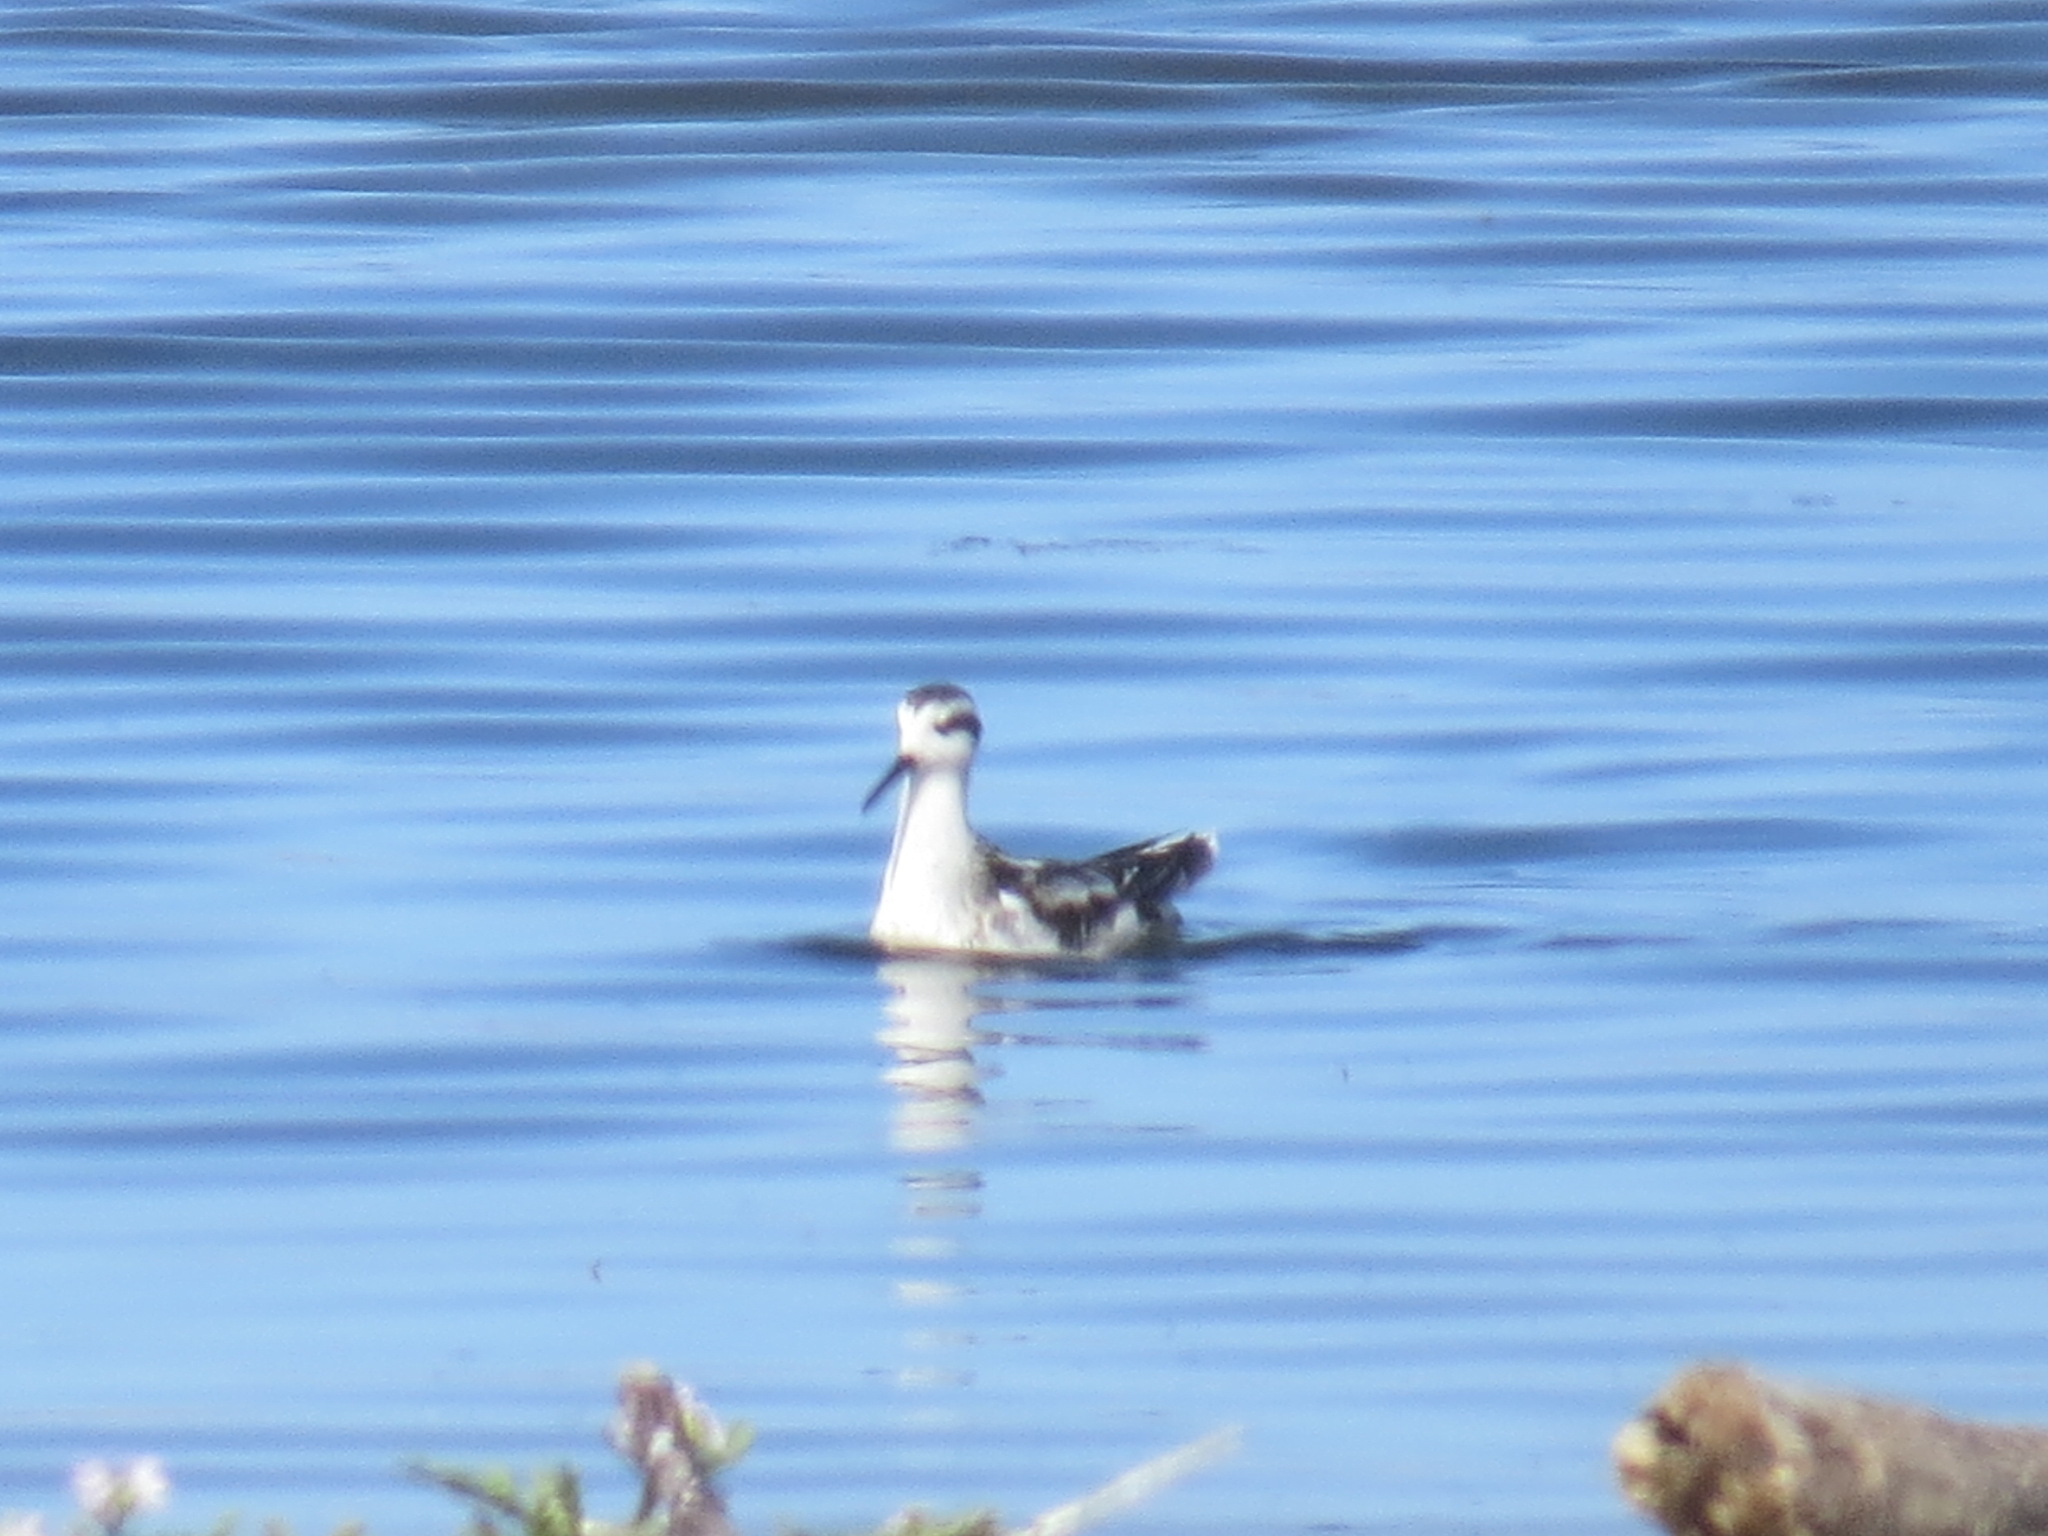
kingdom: Animalia
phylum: Chordata
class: Aves
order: Charadriiformes
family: Scolopacidae
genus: Phalaropus
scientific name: Phalaropus lobatus
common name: Red-necked phalarope
